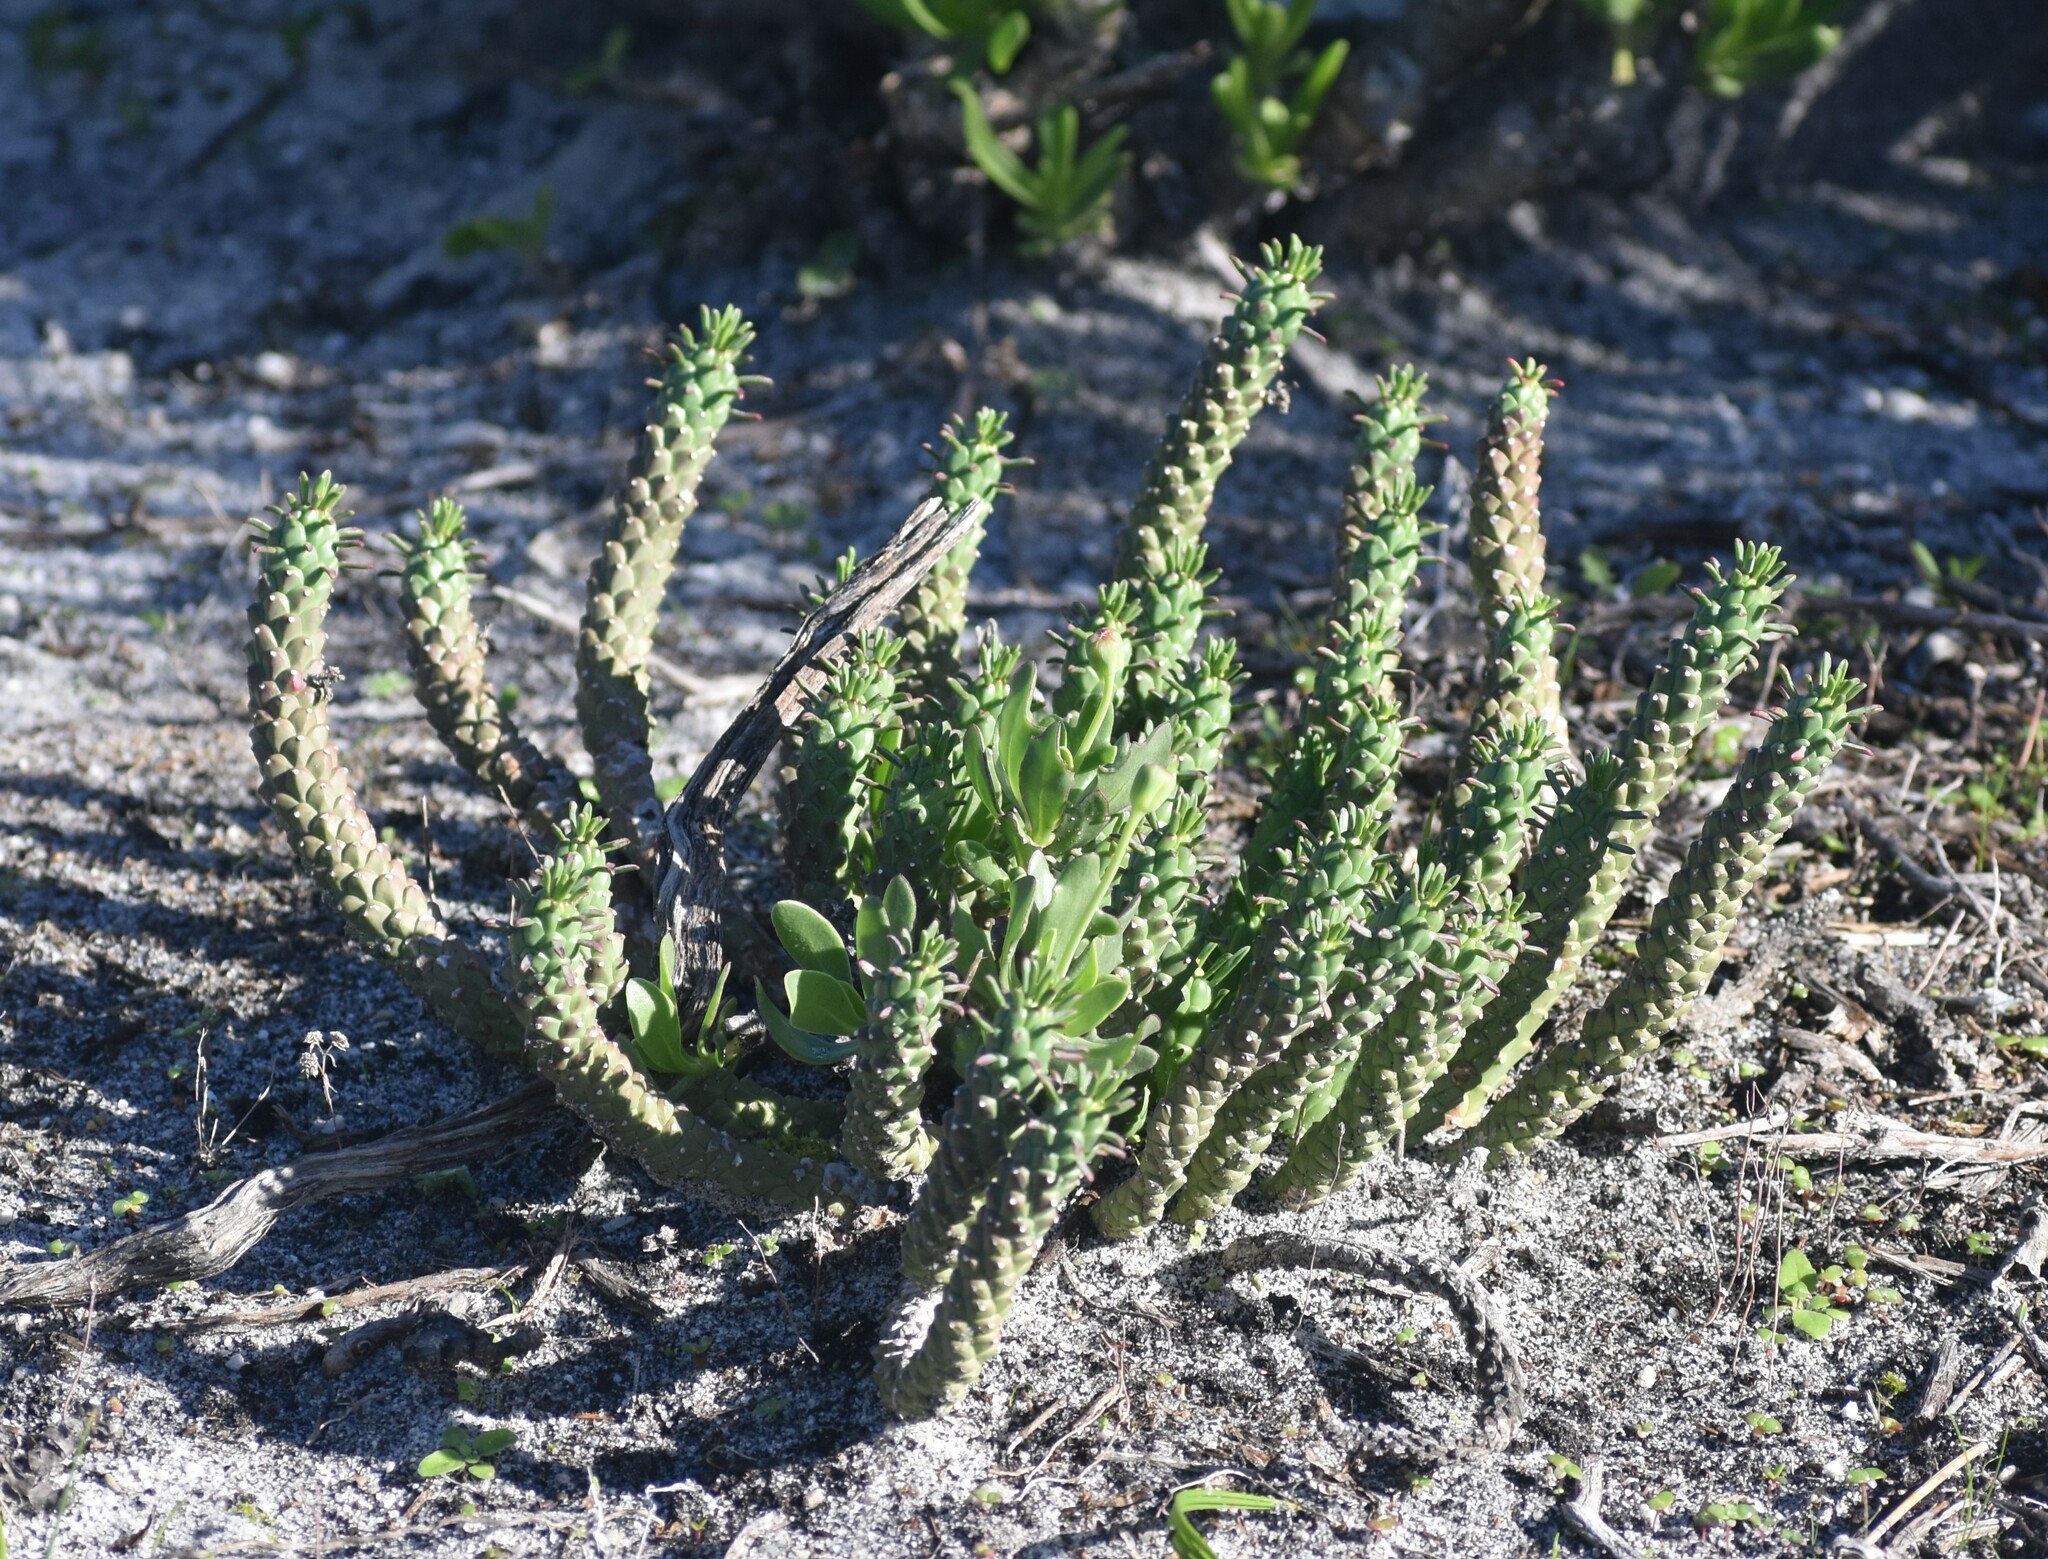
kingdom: Plantae
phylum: Tracheophyta
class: Magnoliopsida
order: Malpighiales
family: Euphorbiaceae
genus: Euphorbia
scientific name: Euphorbia caput-medusae
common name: Medusa's-head
